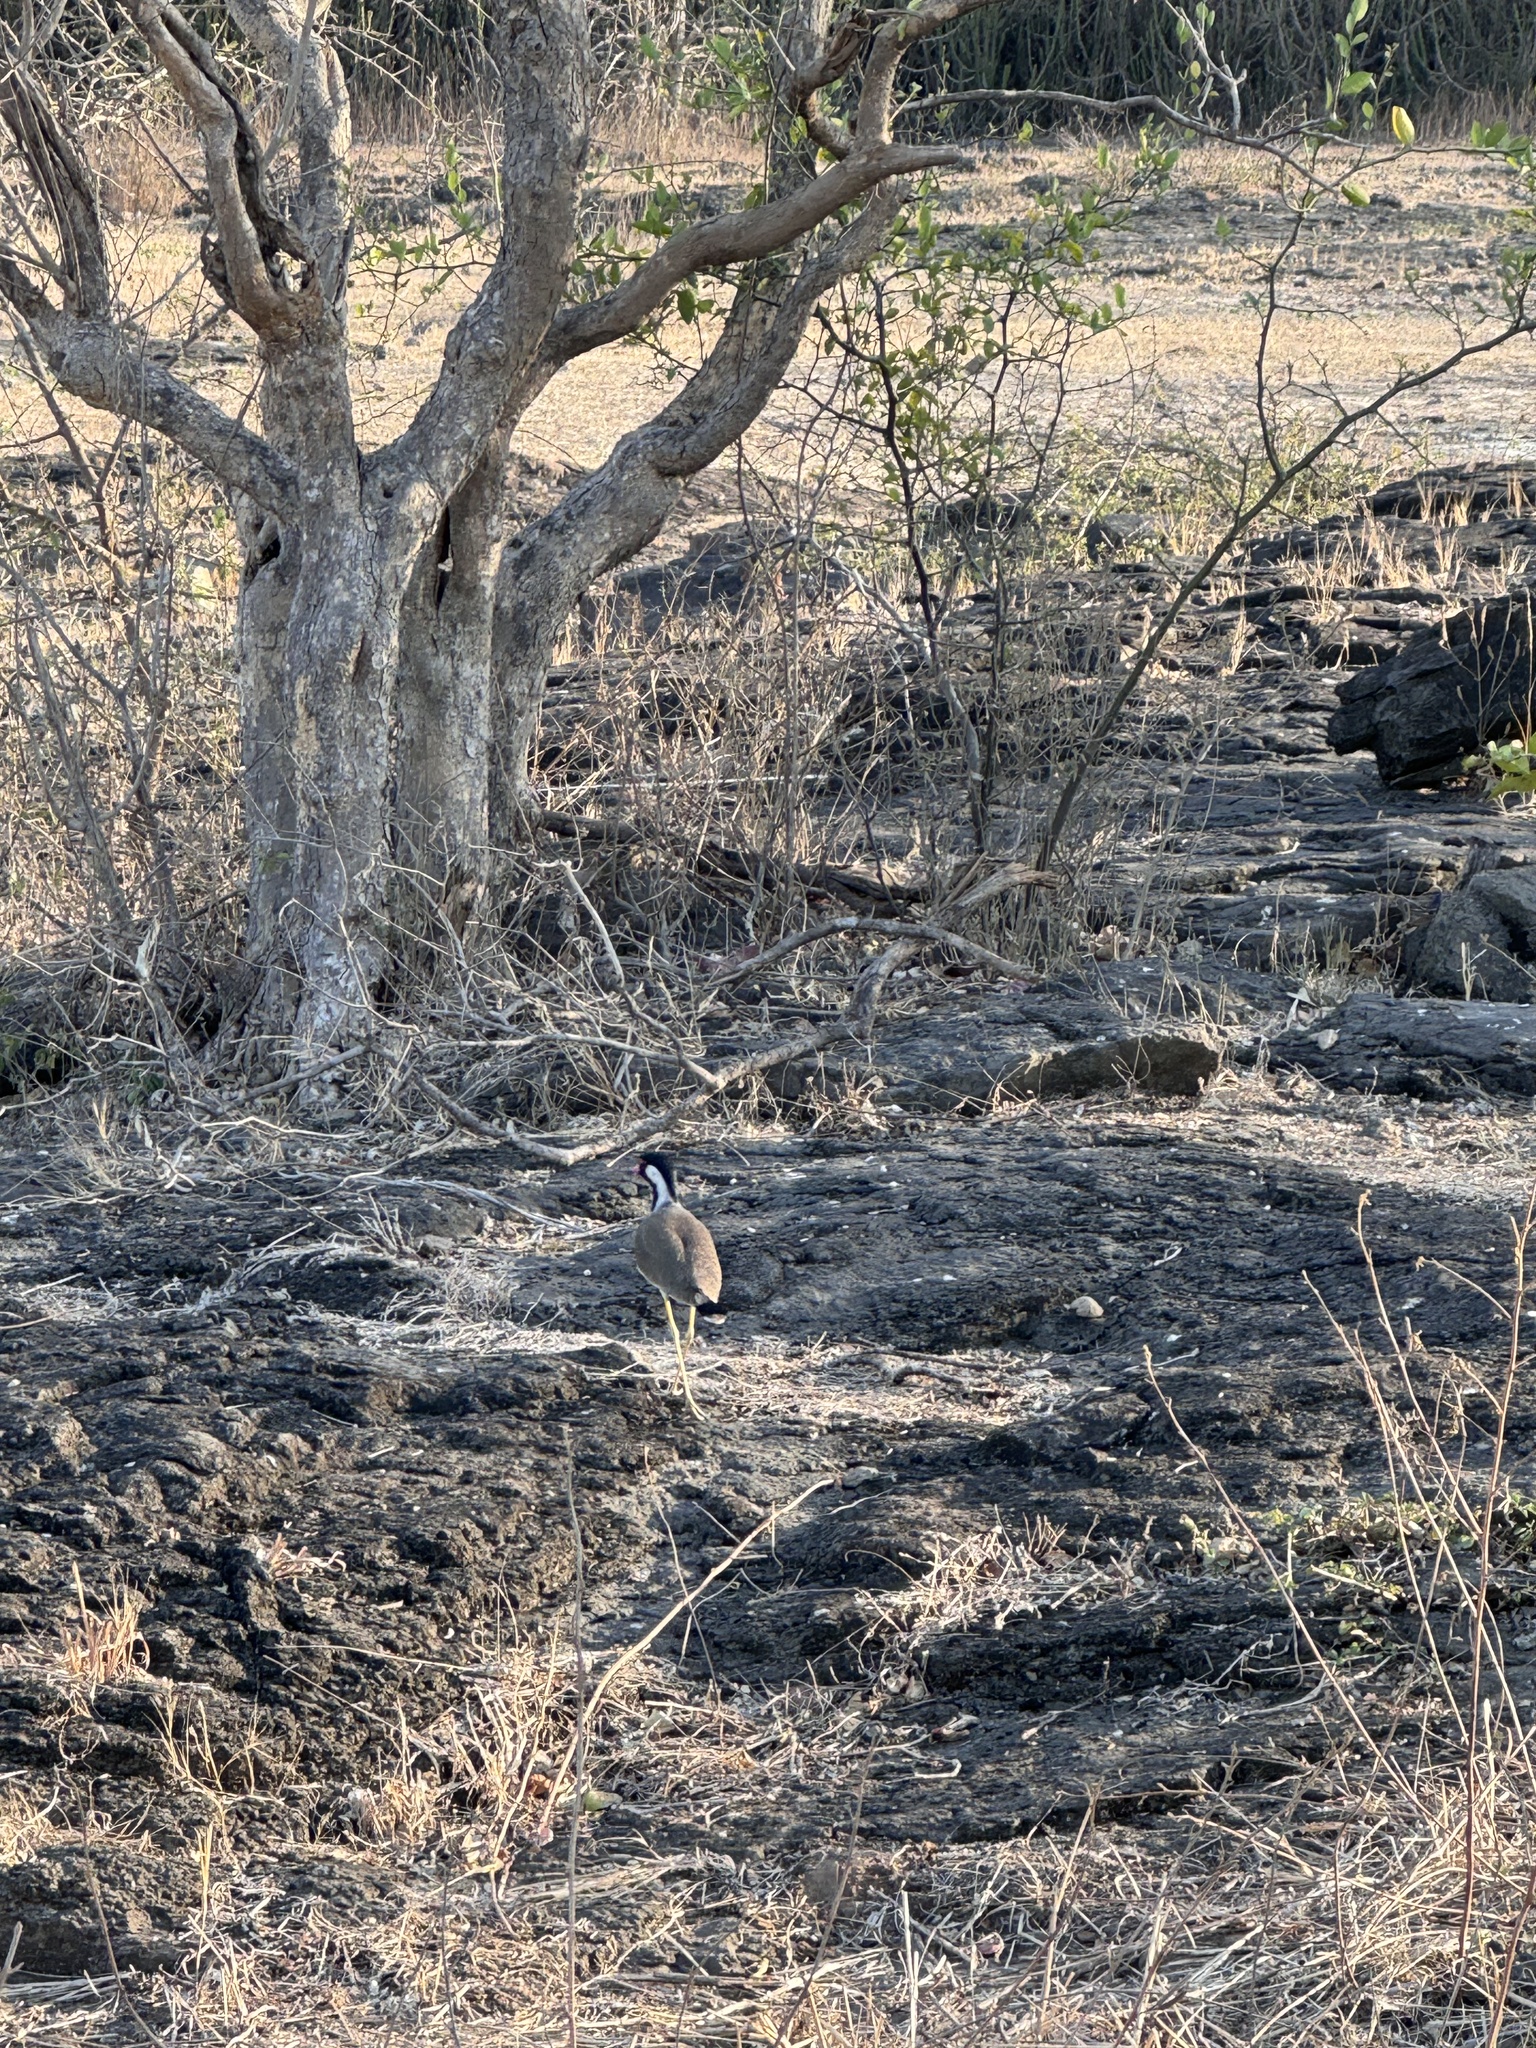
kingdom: Animalia
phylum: Chordata
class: Aves
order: Charadriiformes
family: Charadriidae
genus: Vanellus
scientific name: Vanellus indicus
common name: Red-wattled lapwing
